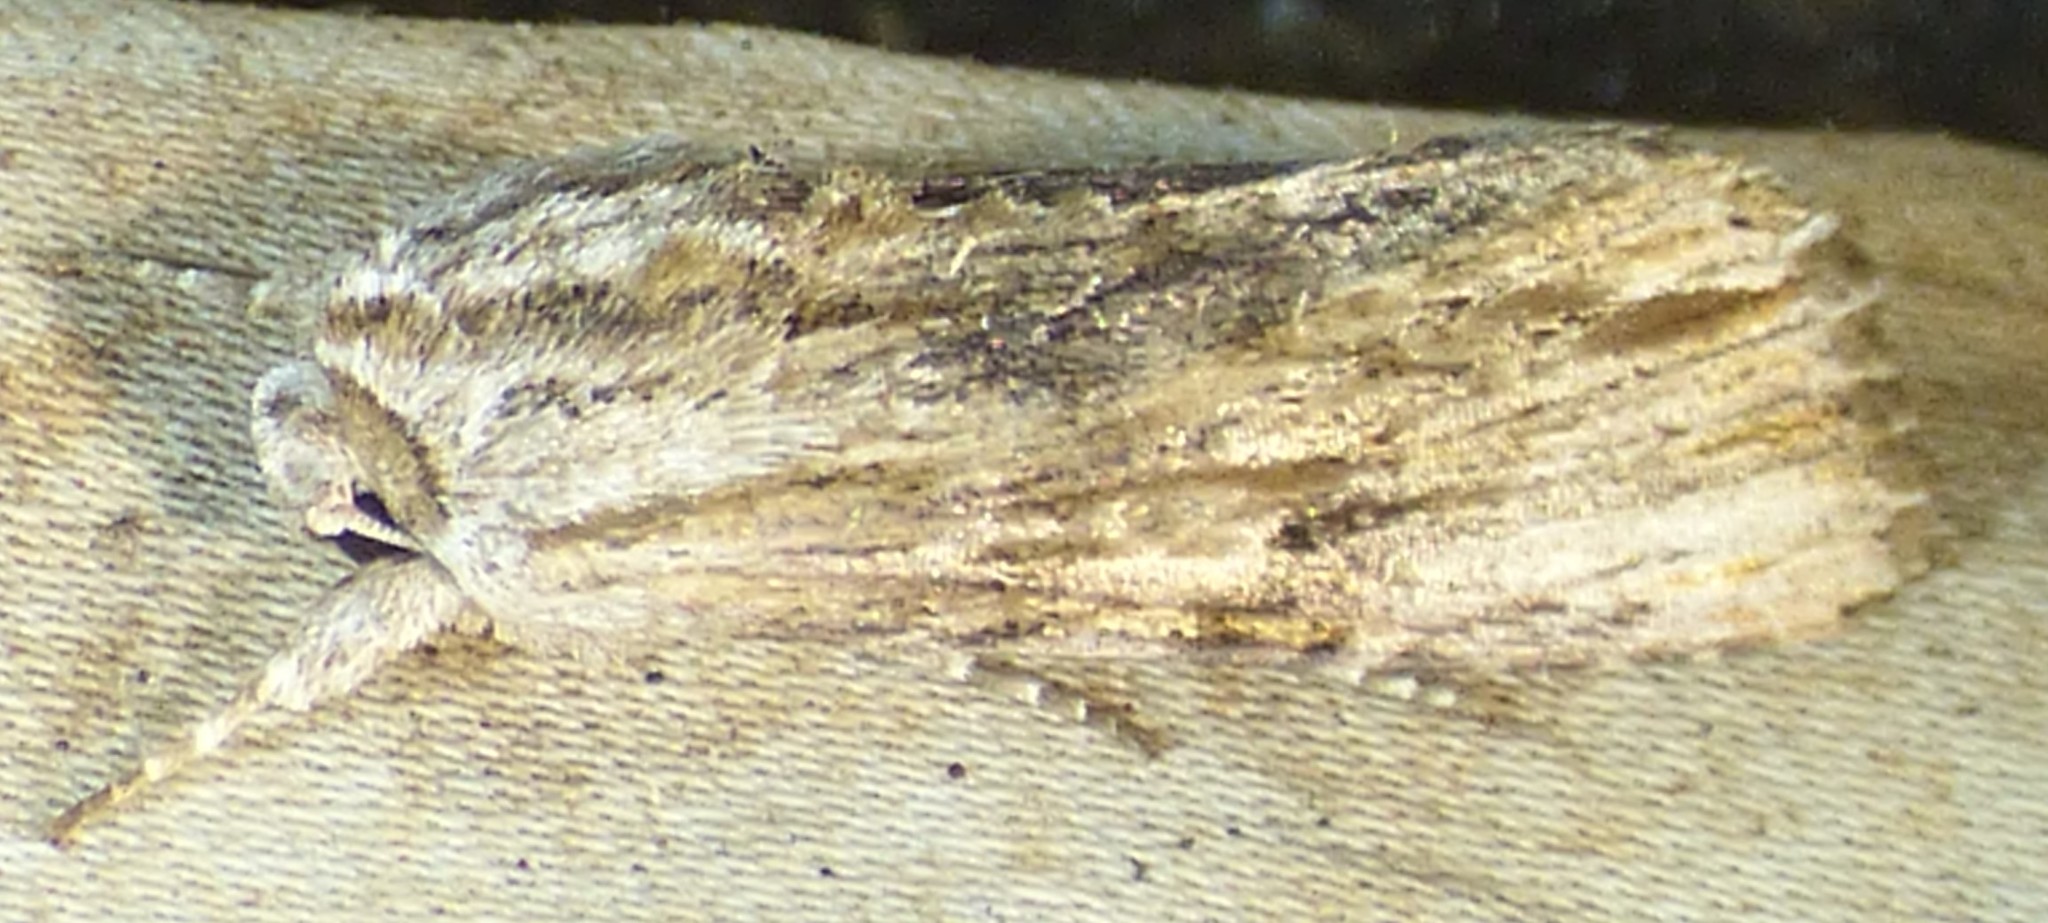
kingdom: Animalia
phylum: Arthropoda
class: Insecta
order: Lepidoptera
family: Noctuidae
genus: Spodoptera
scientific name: Spodoptera eridania
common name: Southern army worm
